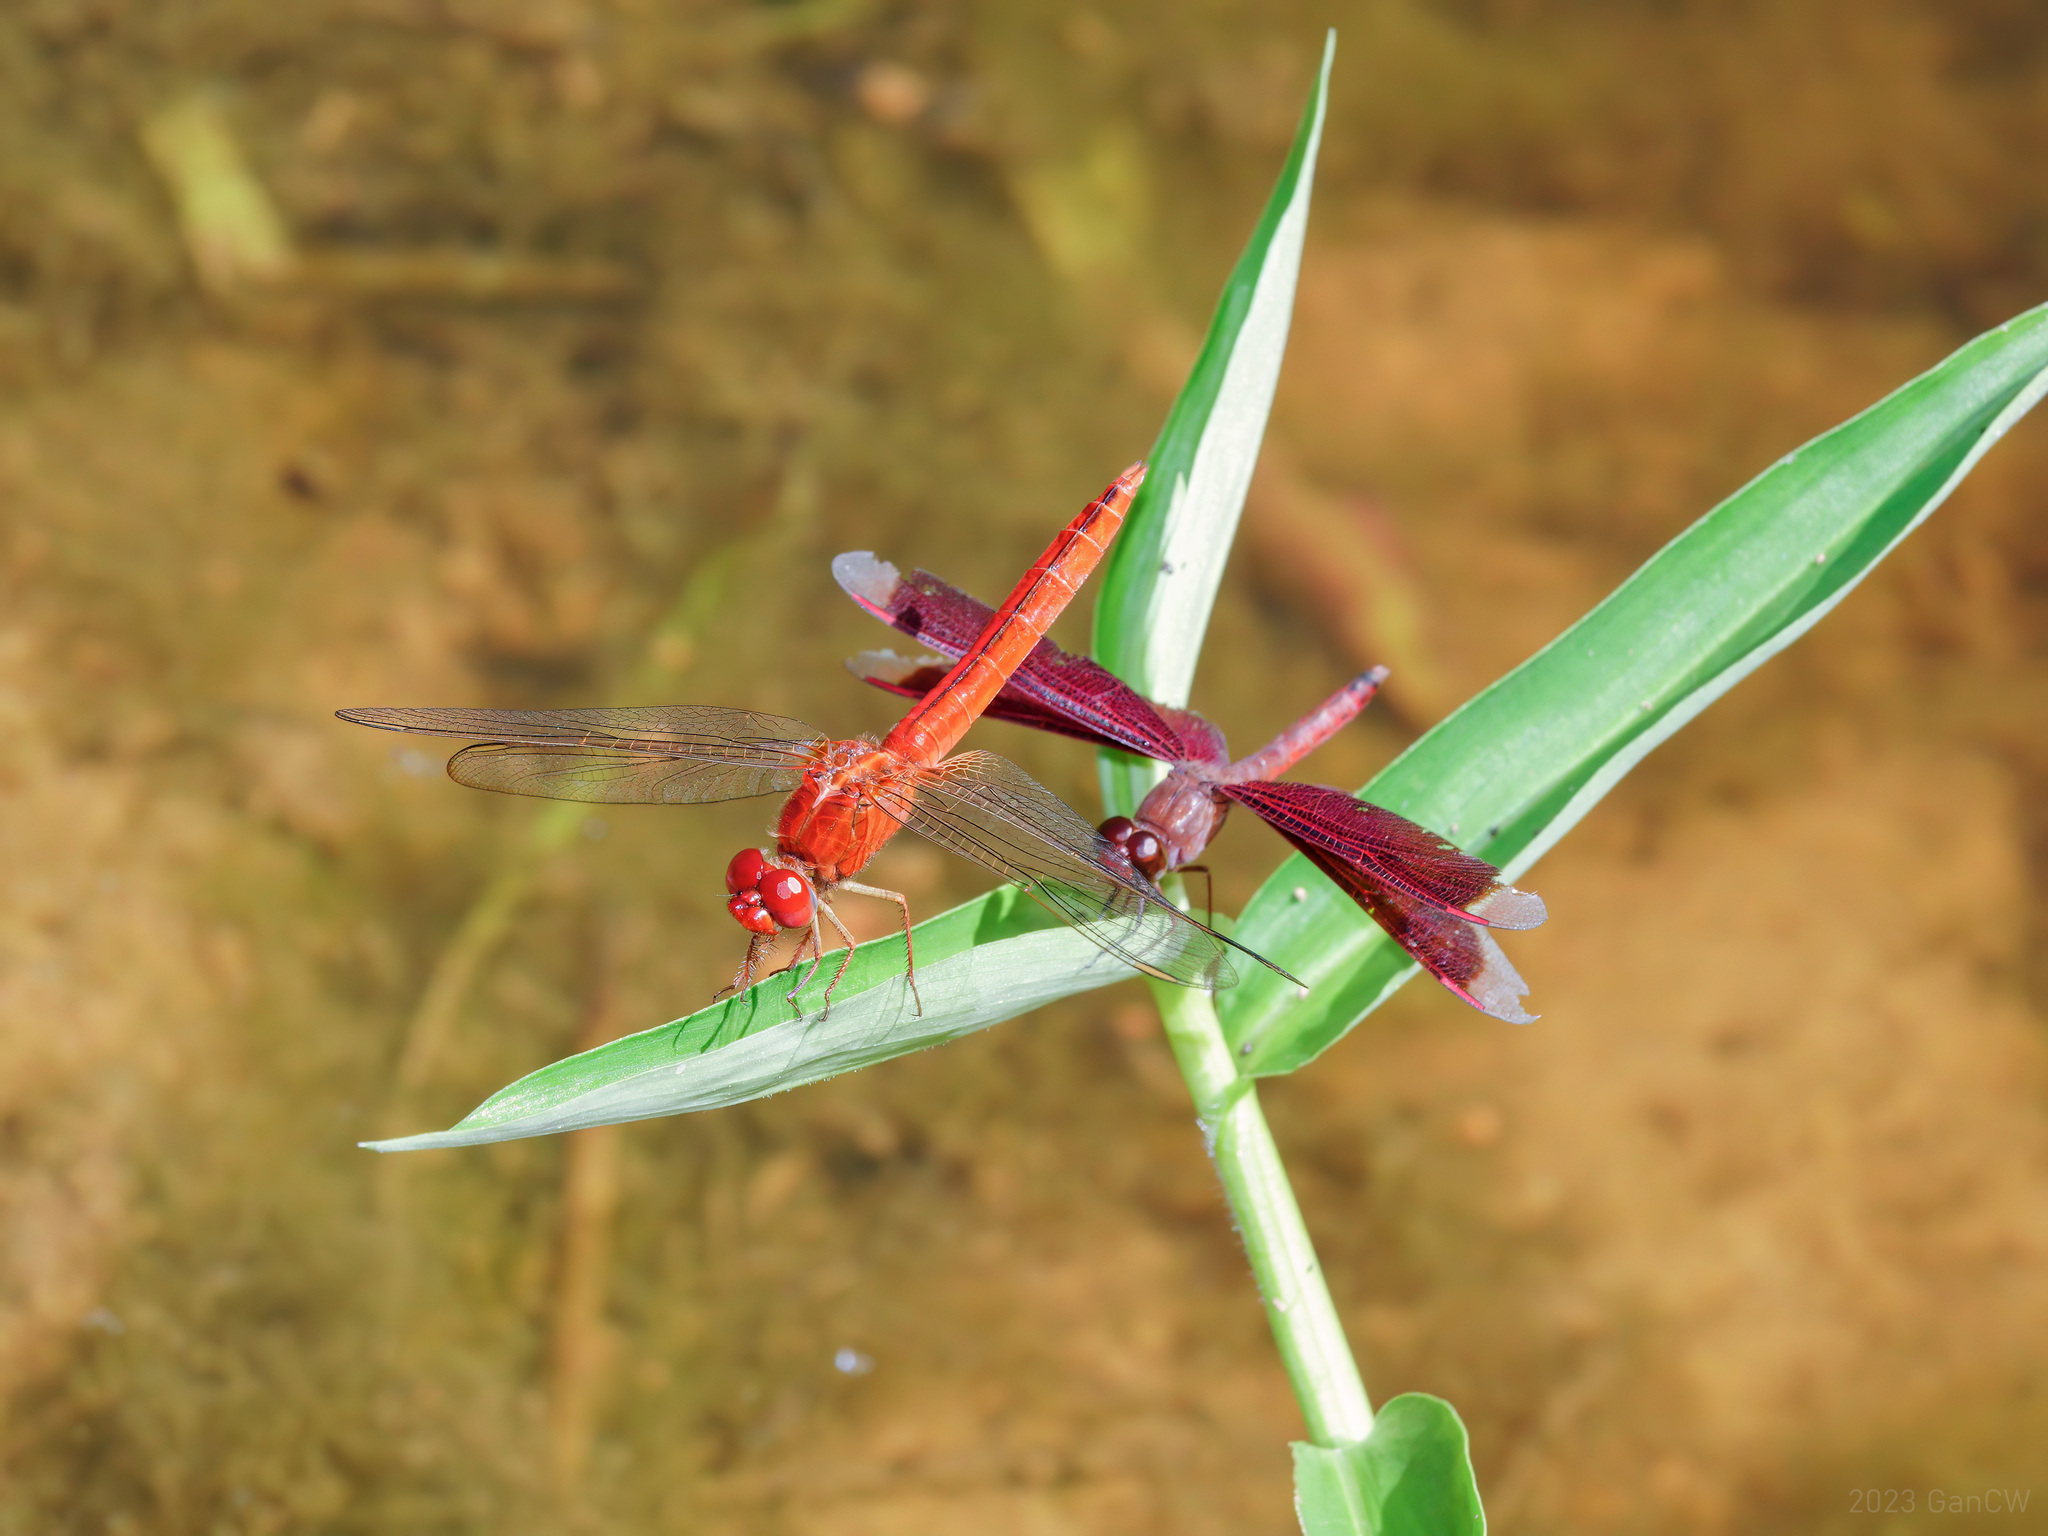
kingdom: Animalia
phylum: Arthropoda
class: Insecta
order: Odonata
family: Libellulidae
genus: Crocothemis
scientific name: Crocothemis servilia
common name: Scarlet skimmer
